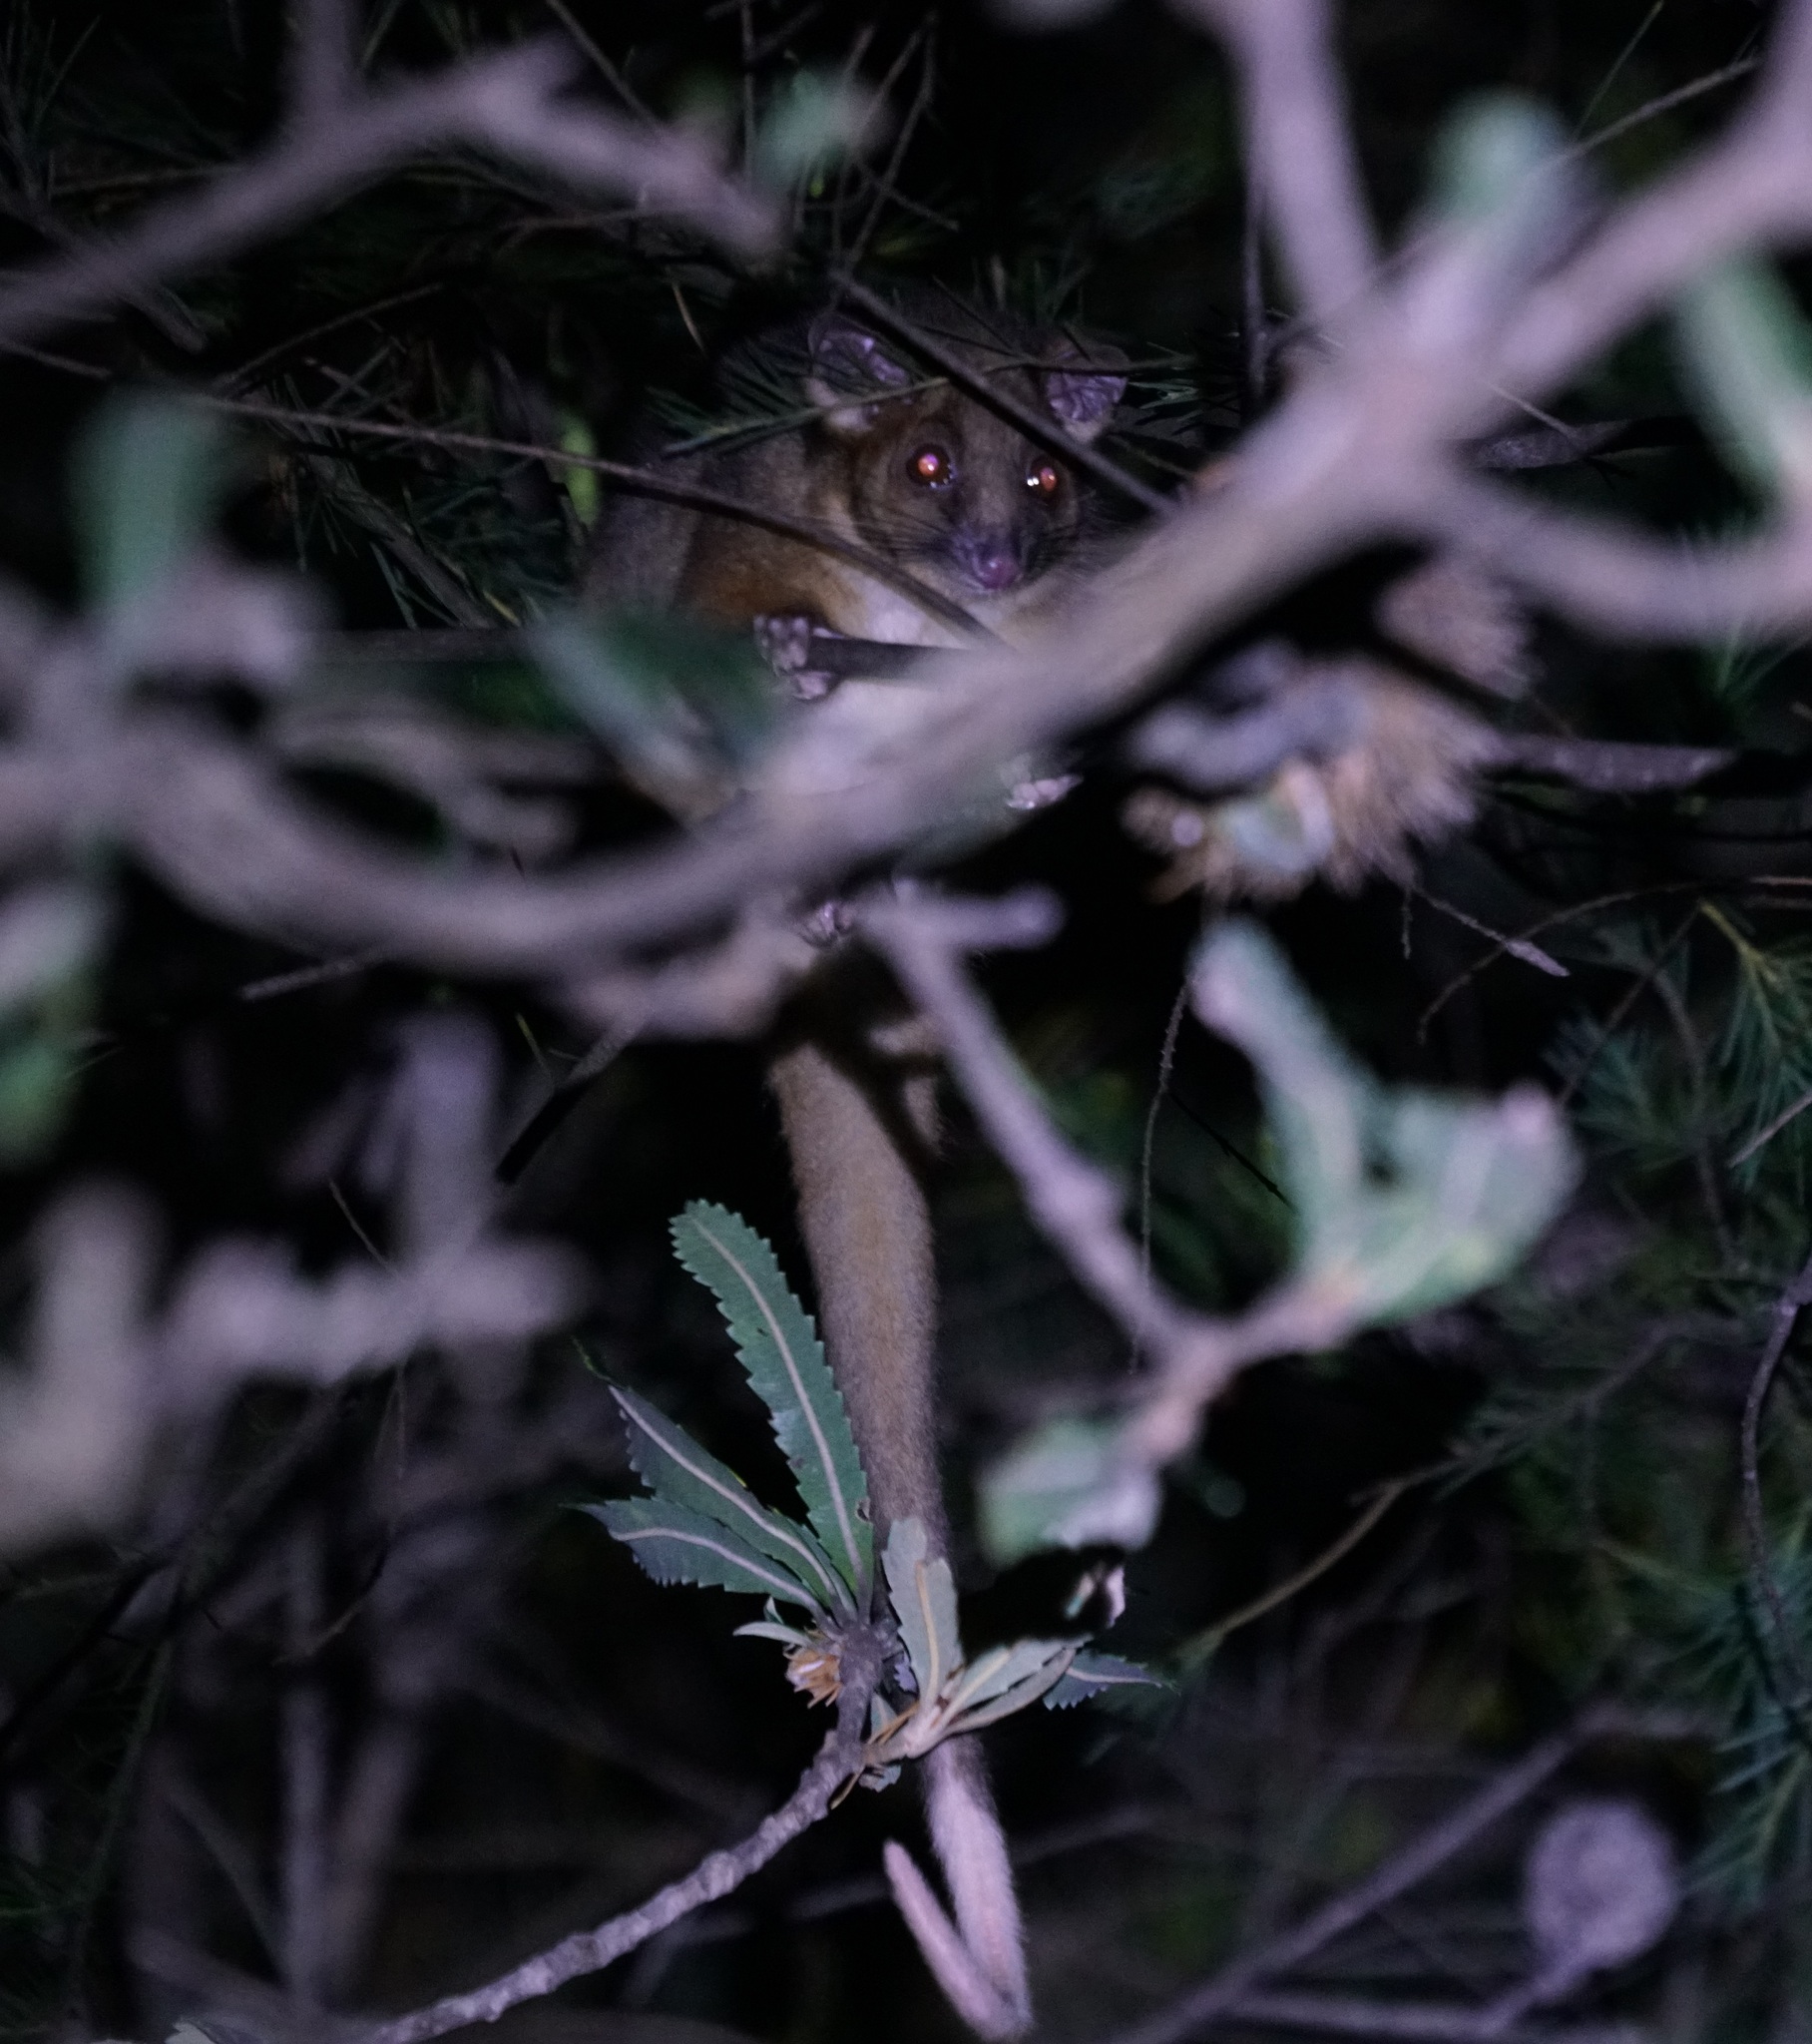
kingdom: Animalia
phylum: Chordata
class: Mammalia
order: Diprotodontia
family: Pseudocheiridae
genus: Pseudocheirus
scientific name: Pseudocheirus peregrinus
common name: Common ringtail possum
